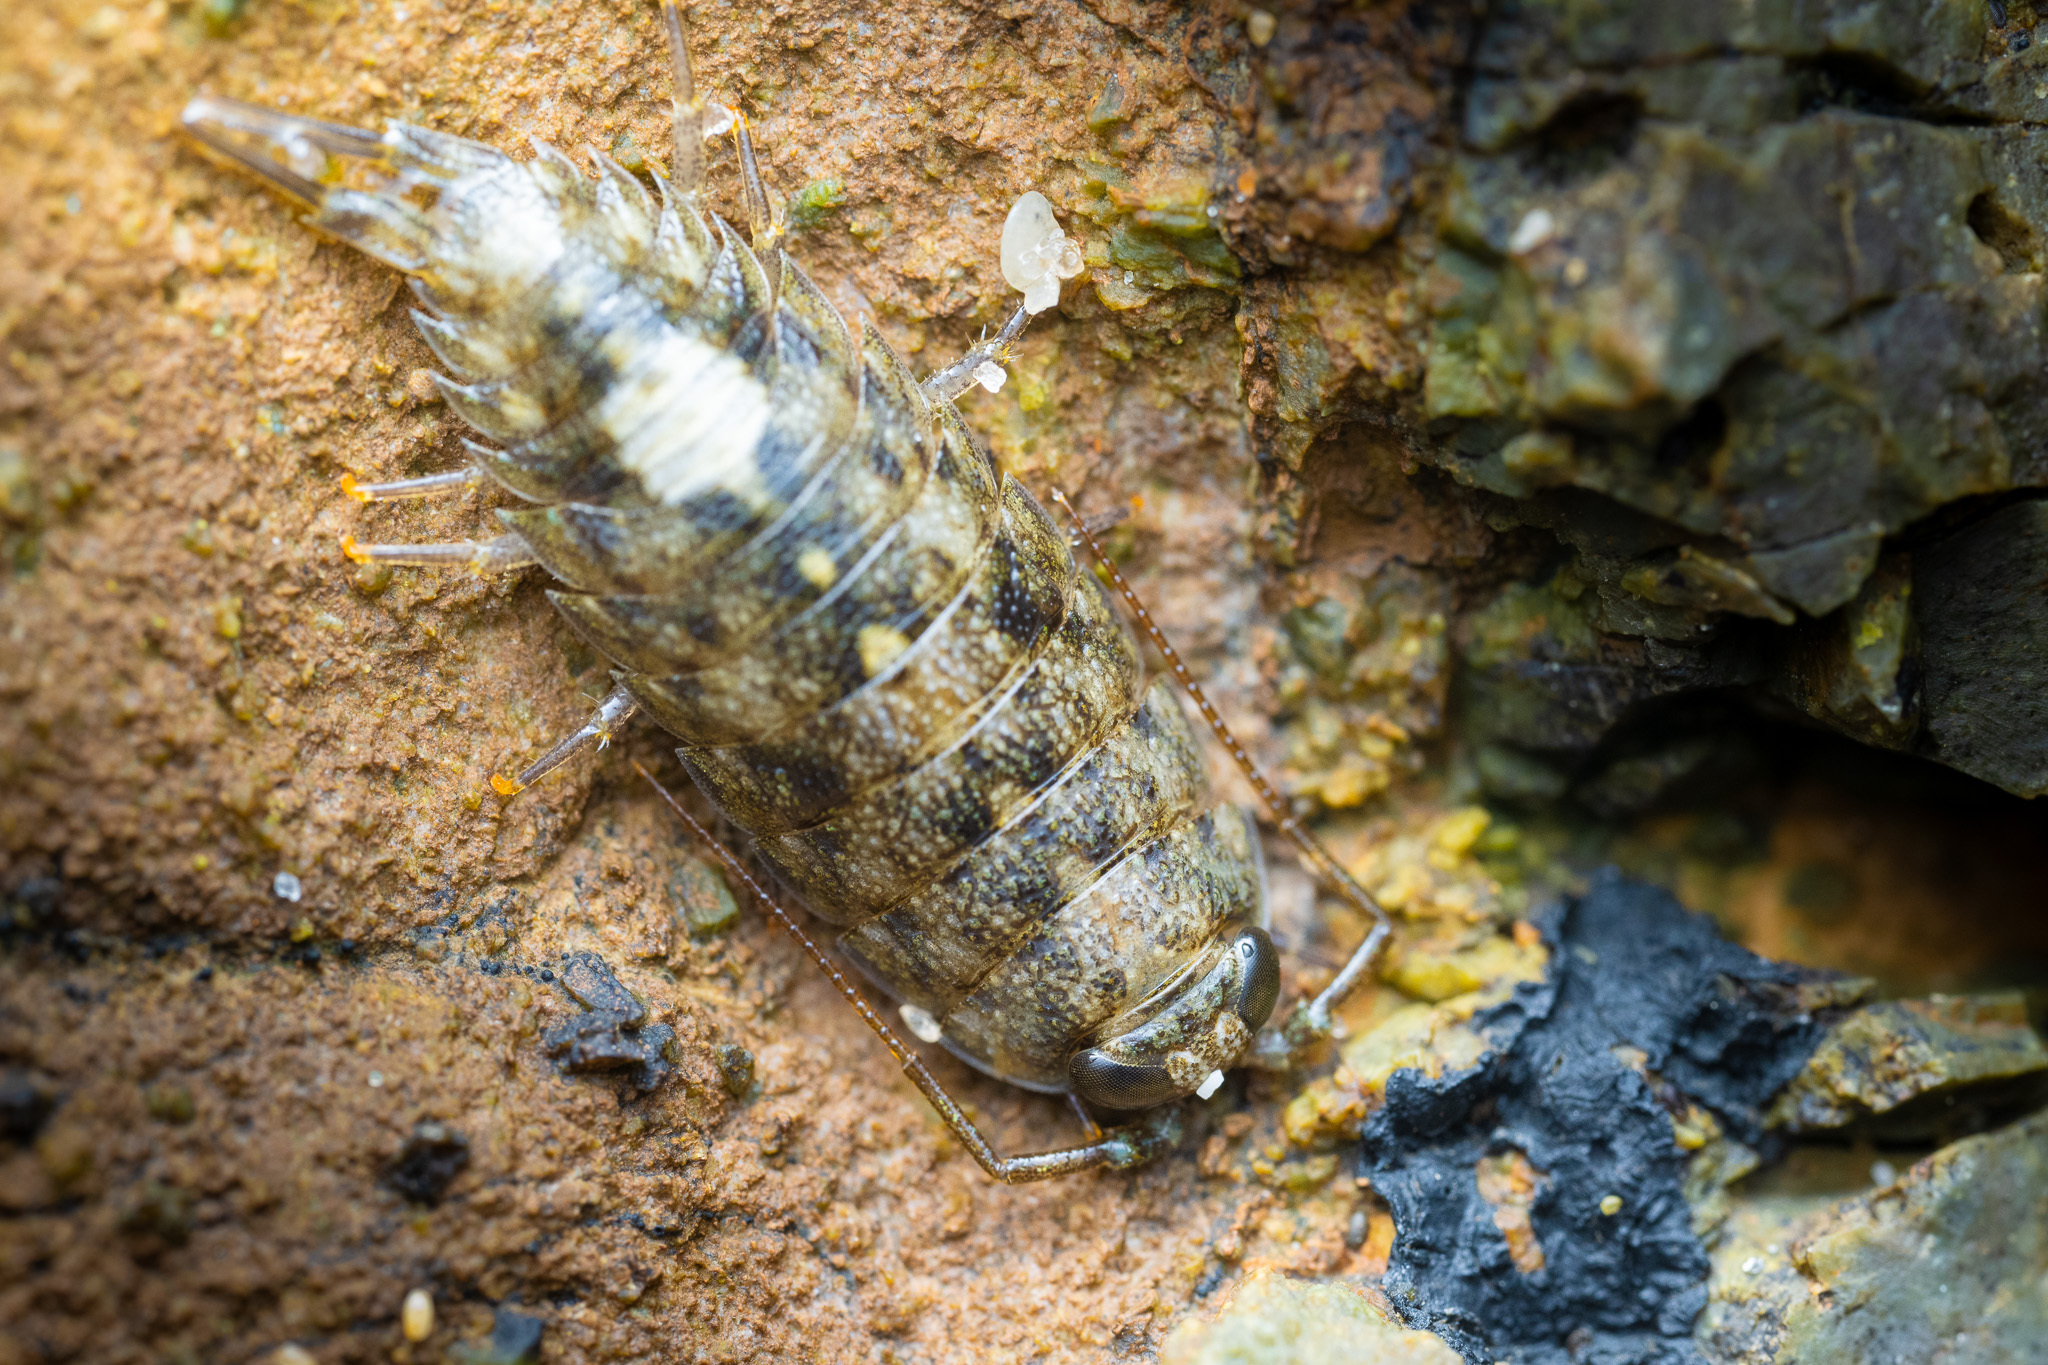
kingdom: Animalia
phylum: Arthropoda
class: Malacostraca
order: Isopoda
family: Ligiidae
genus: Ligia
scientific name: Ligia occidentalis
